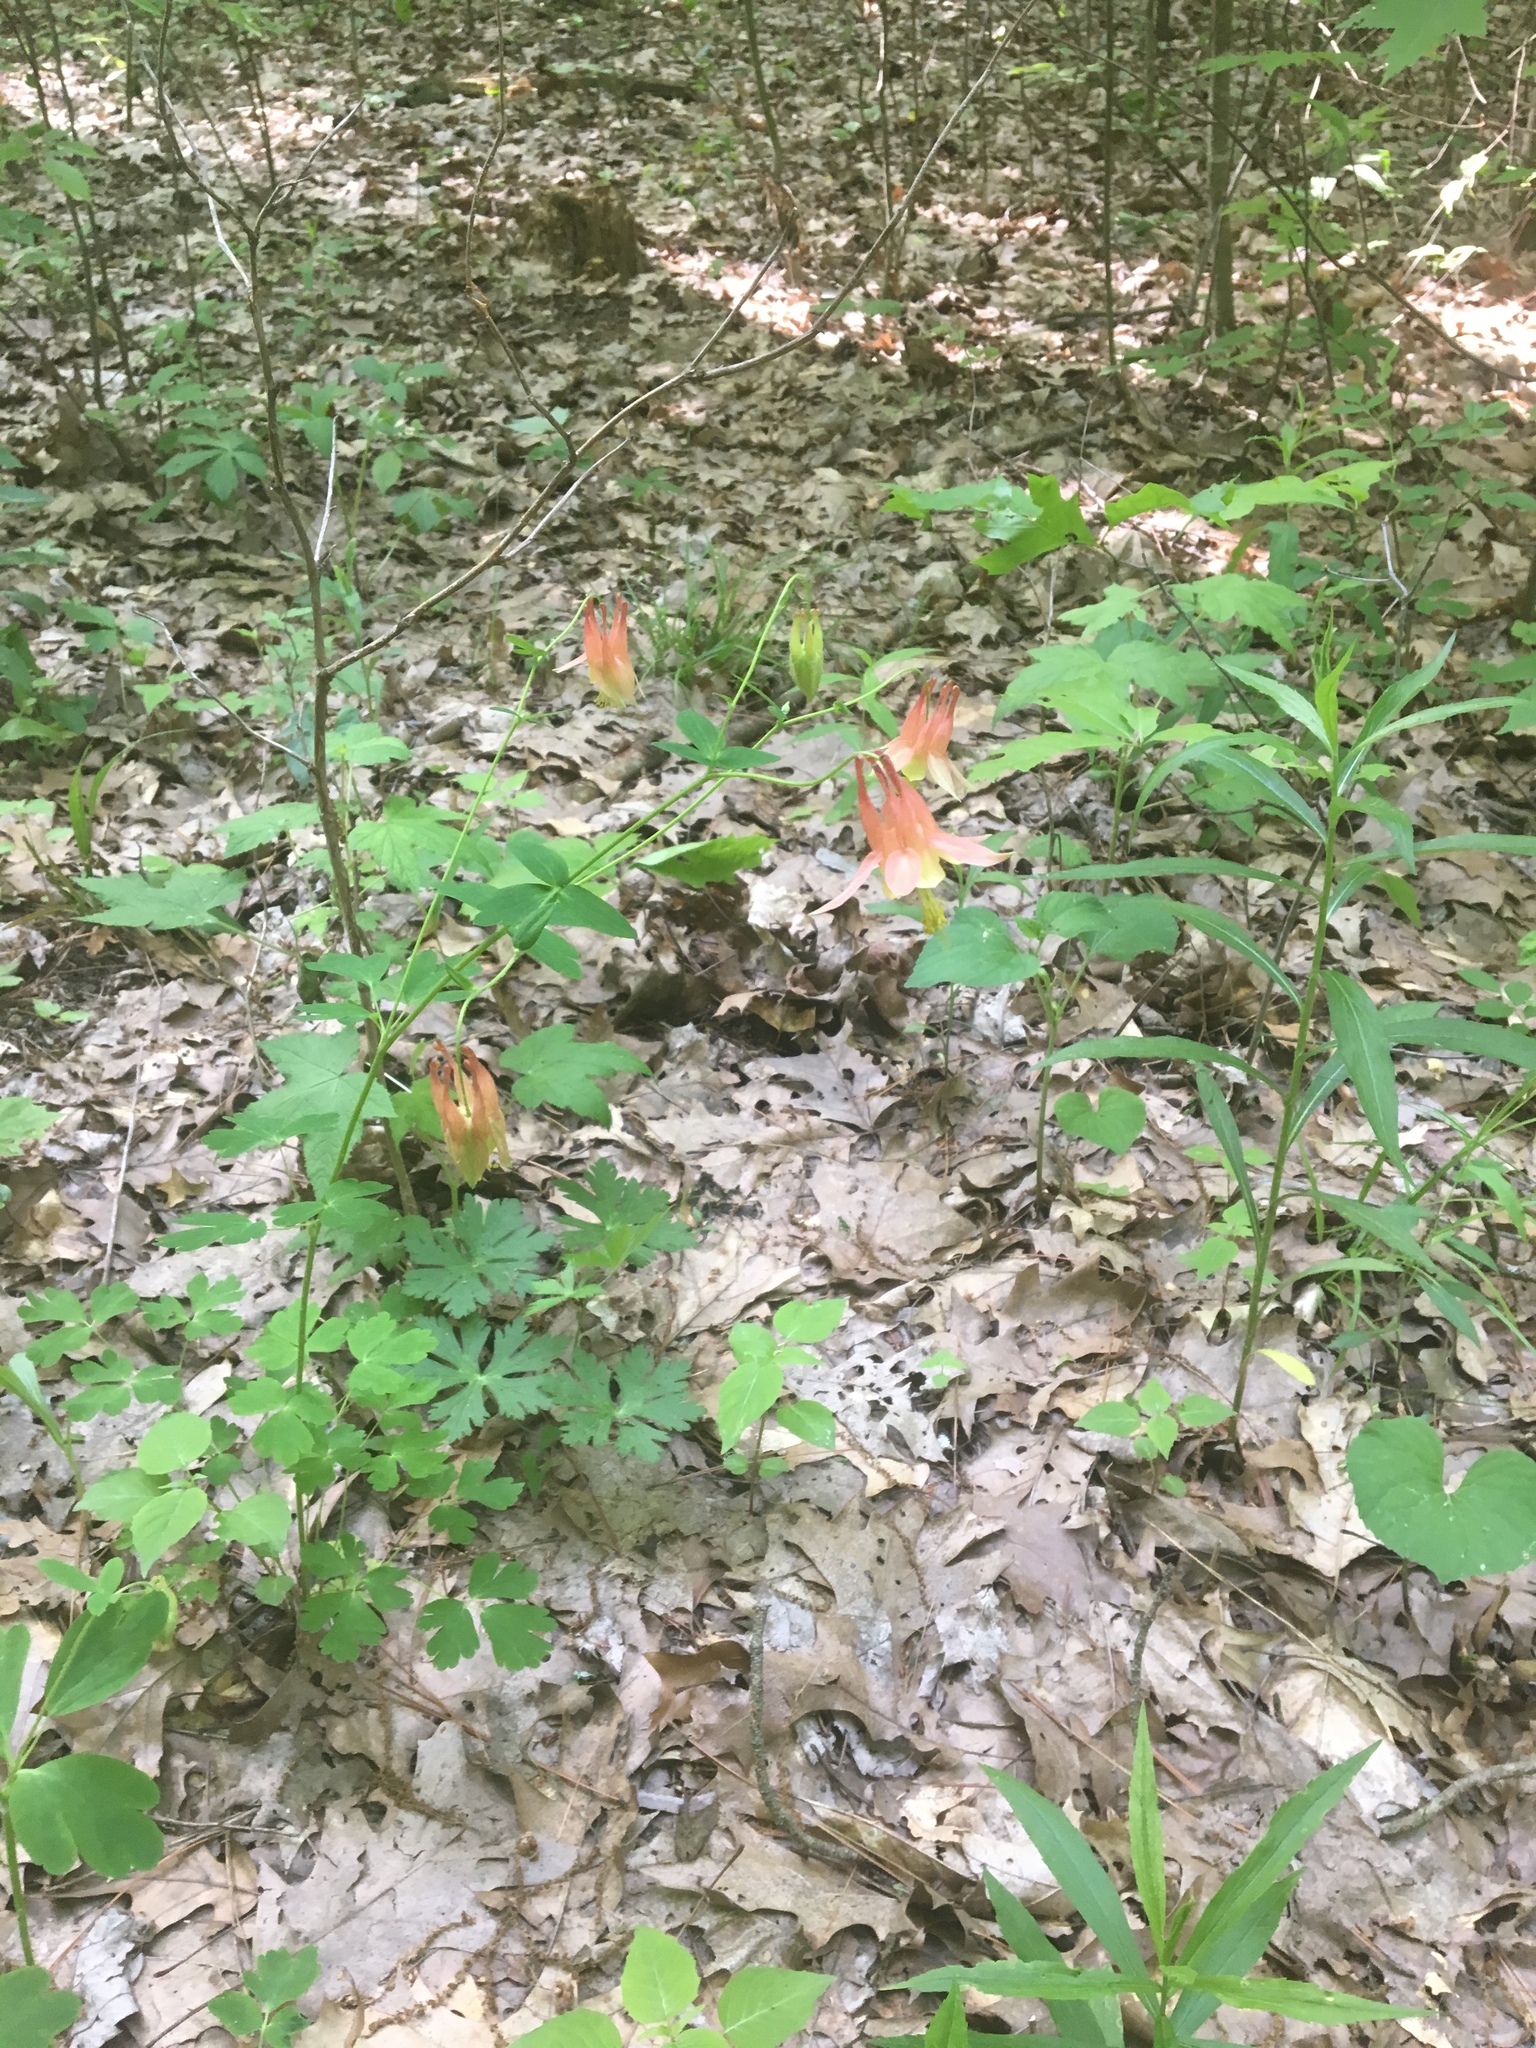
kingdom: Plantae
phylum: Tracheophyta
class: Magnoliopsida
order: Ranunculales
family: Ranunculaceae
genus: Aquilegia
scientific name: Aquilegia canadensis
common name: American columbine
